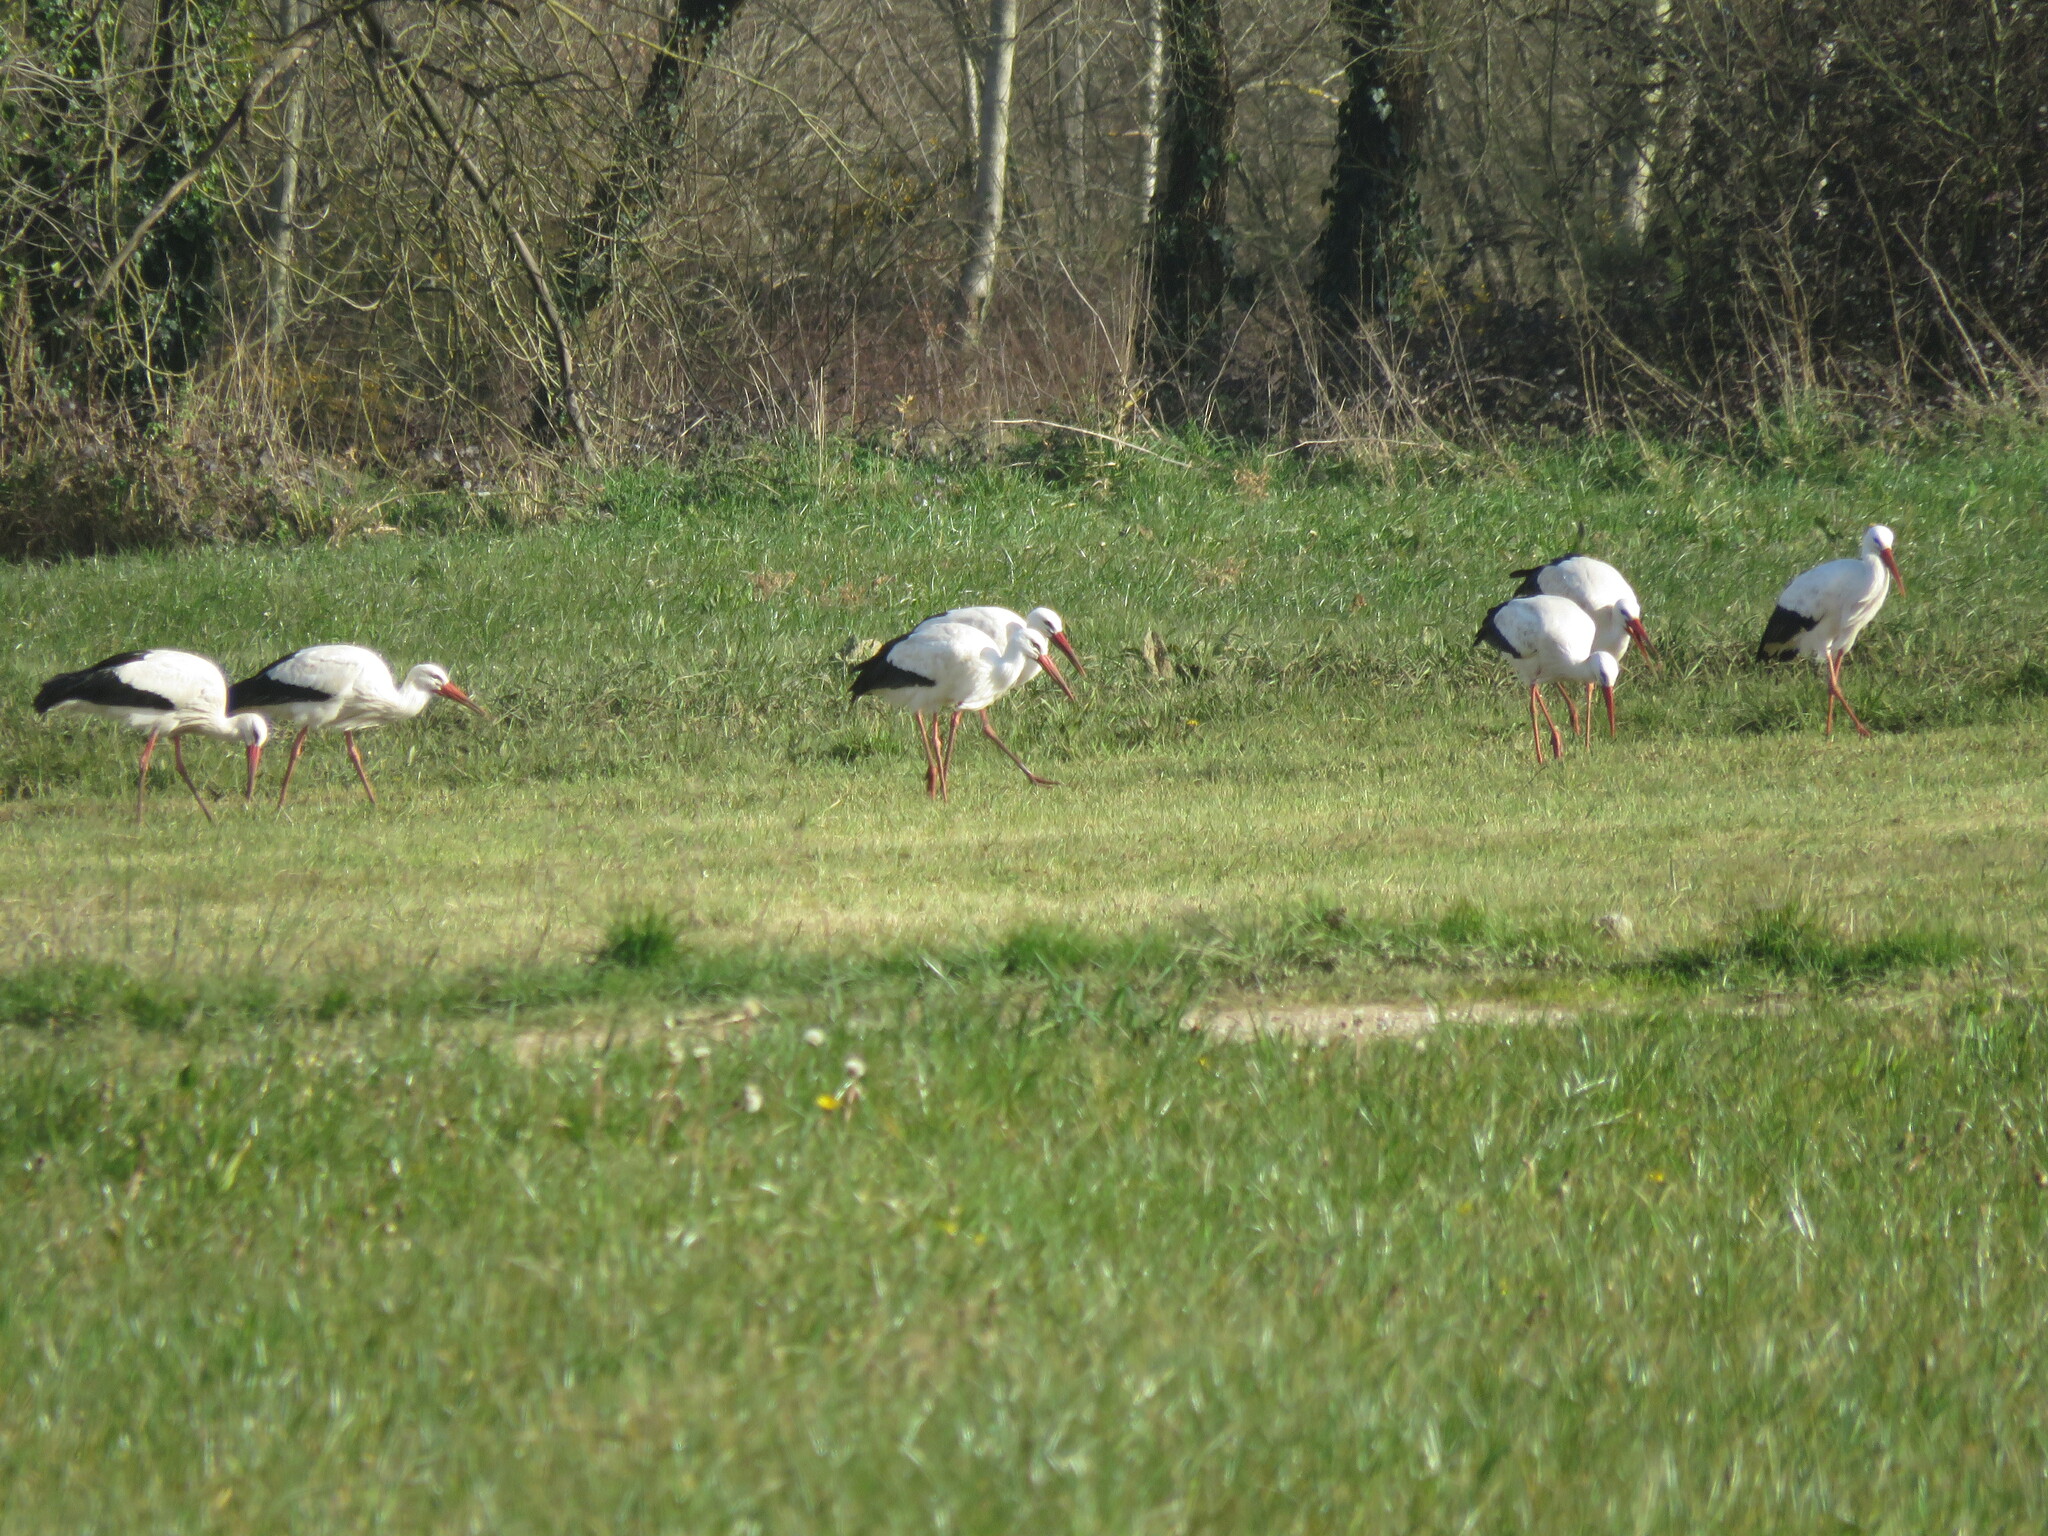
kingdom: Animalia
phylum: Chordata
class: Aves
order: Ciconiiformes
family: Ciconiidae
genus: Ciconia
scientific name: Ciconia ciconia
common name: White stork
